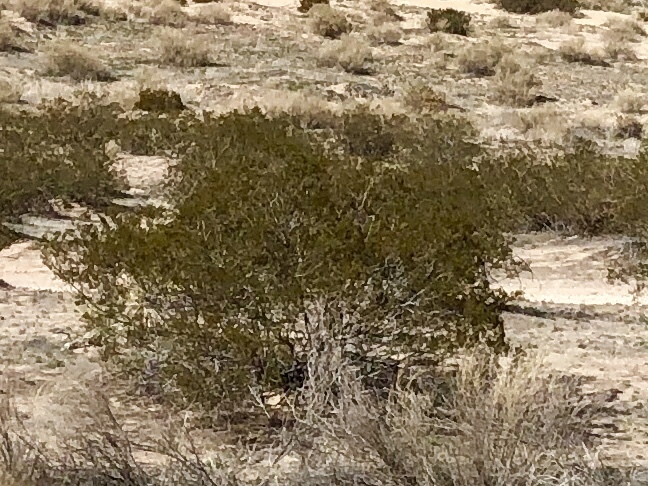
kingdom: Plantae
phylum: Tracheophyta
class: Magnoliopsida
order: Zygophyllales
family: Zygophyllaceae
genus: Larrea
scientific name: Larrea tridentata
